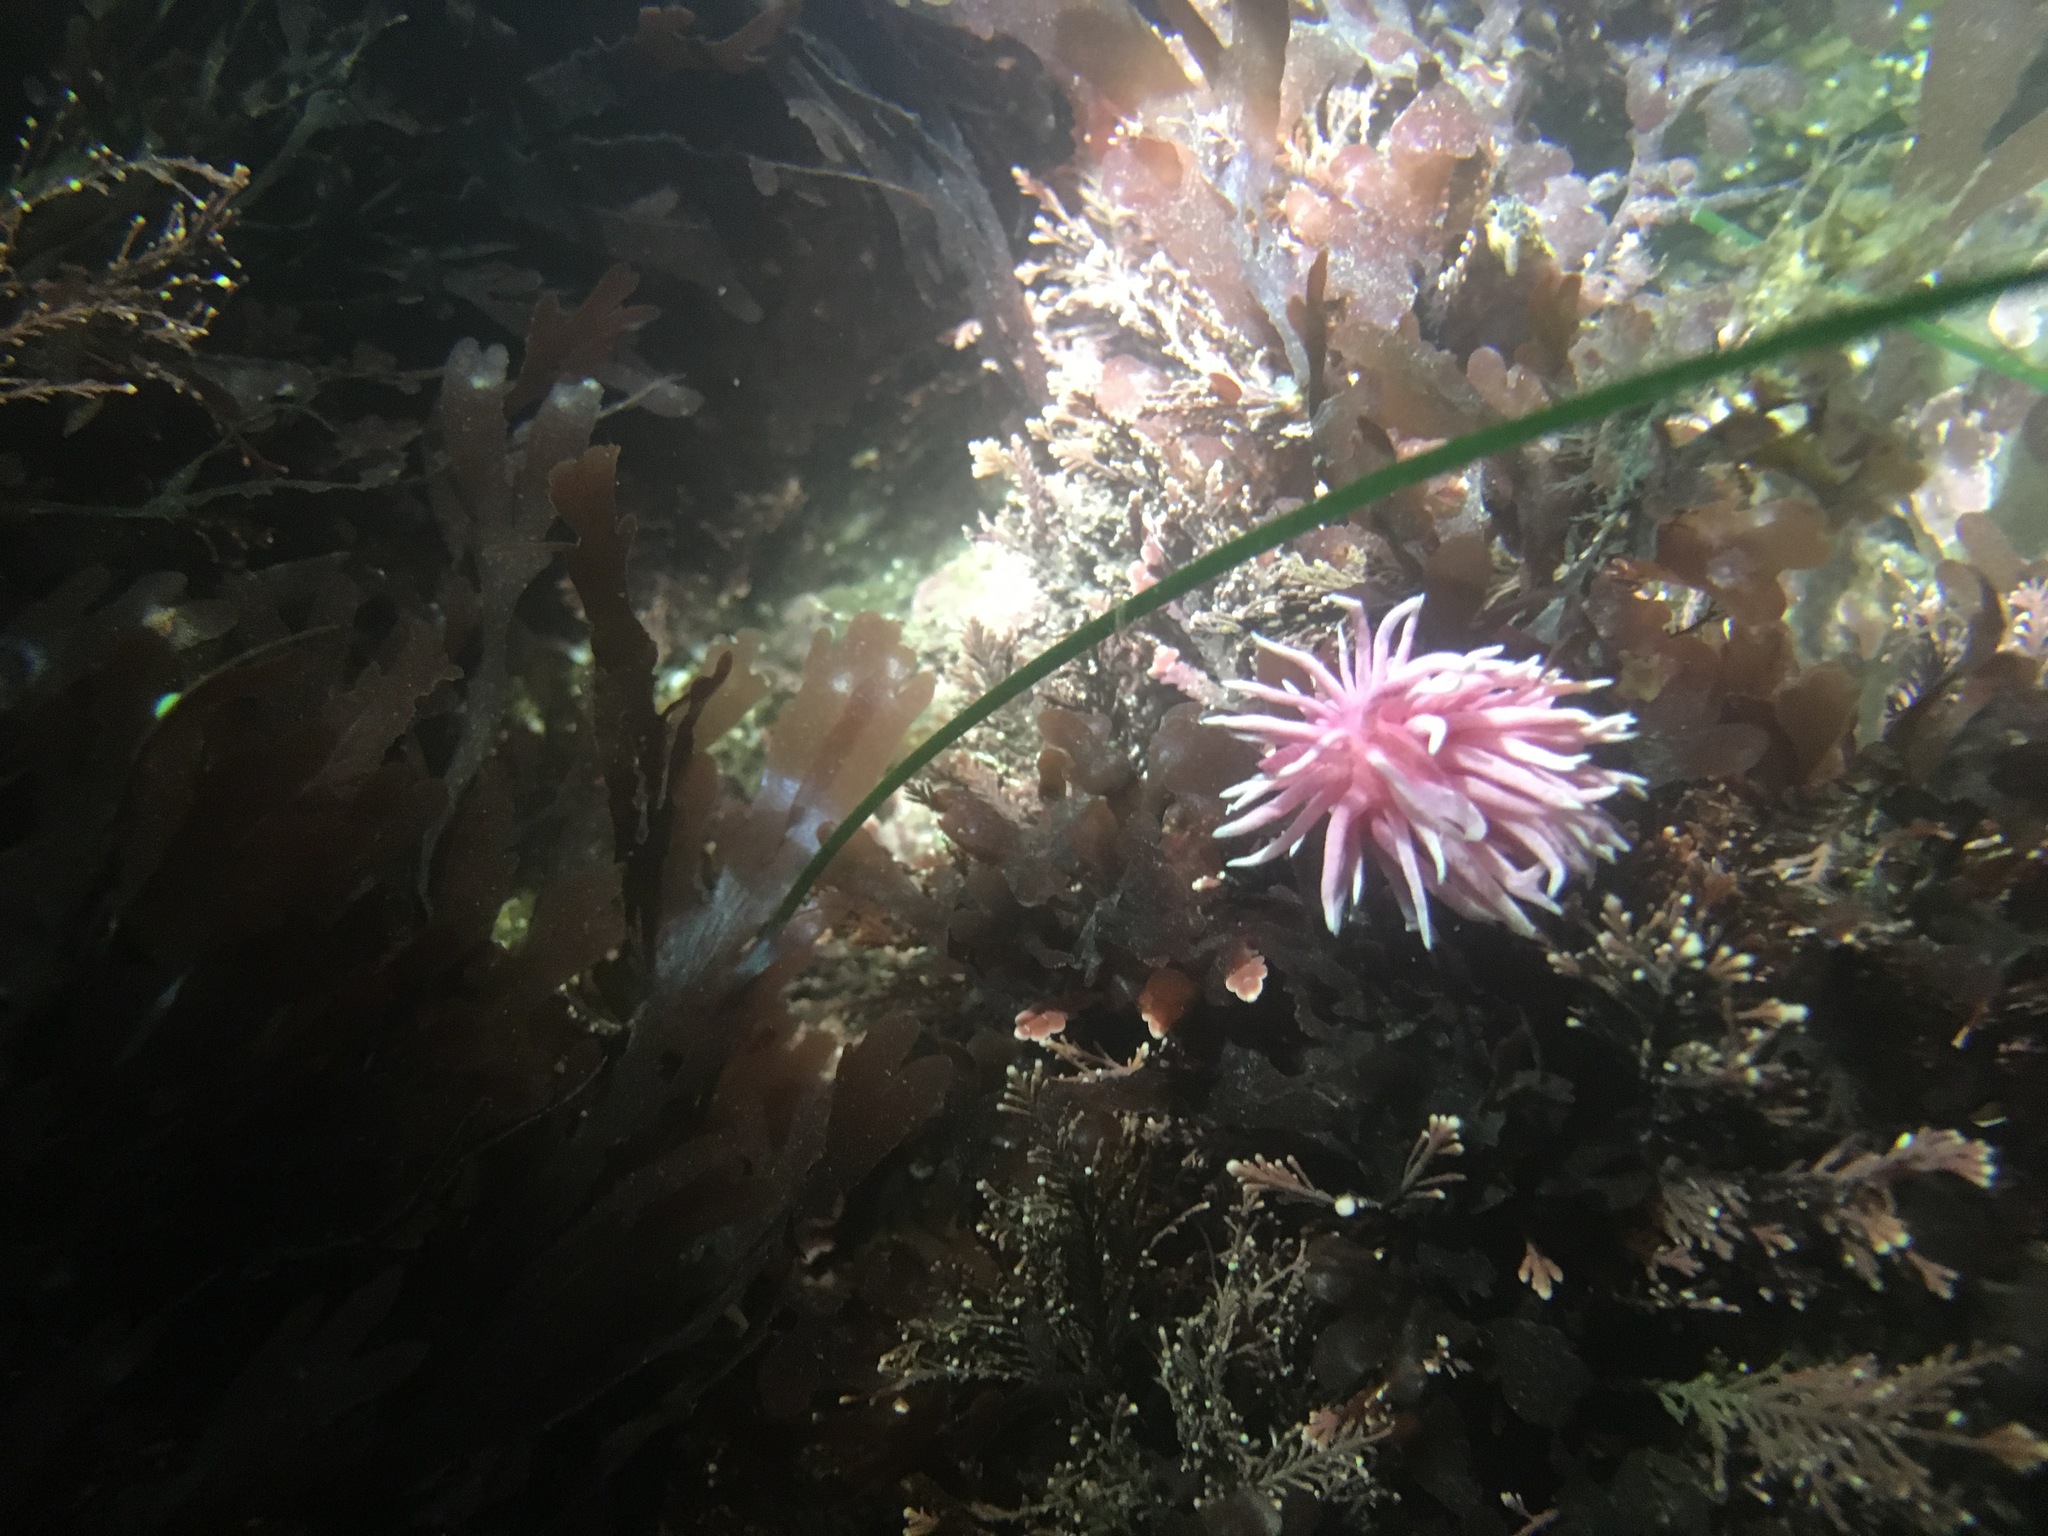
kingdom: Animalia
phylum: Mollusca
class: Gastropoda
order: Nudibranchia
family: Goniodorididae
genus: Okenia
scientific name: Okenia
